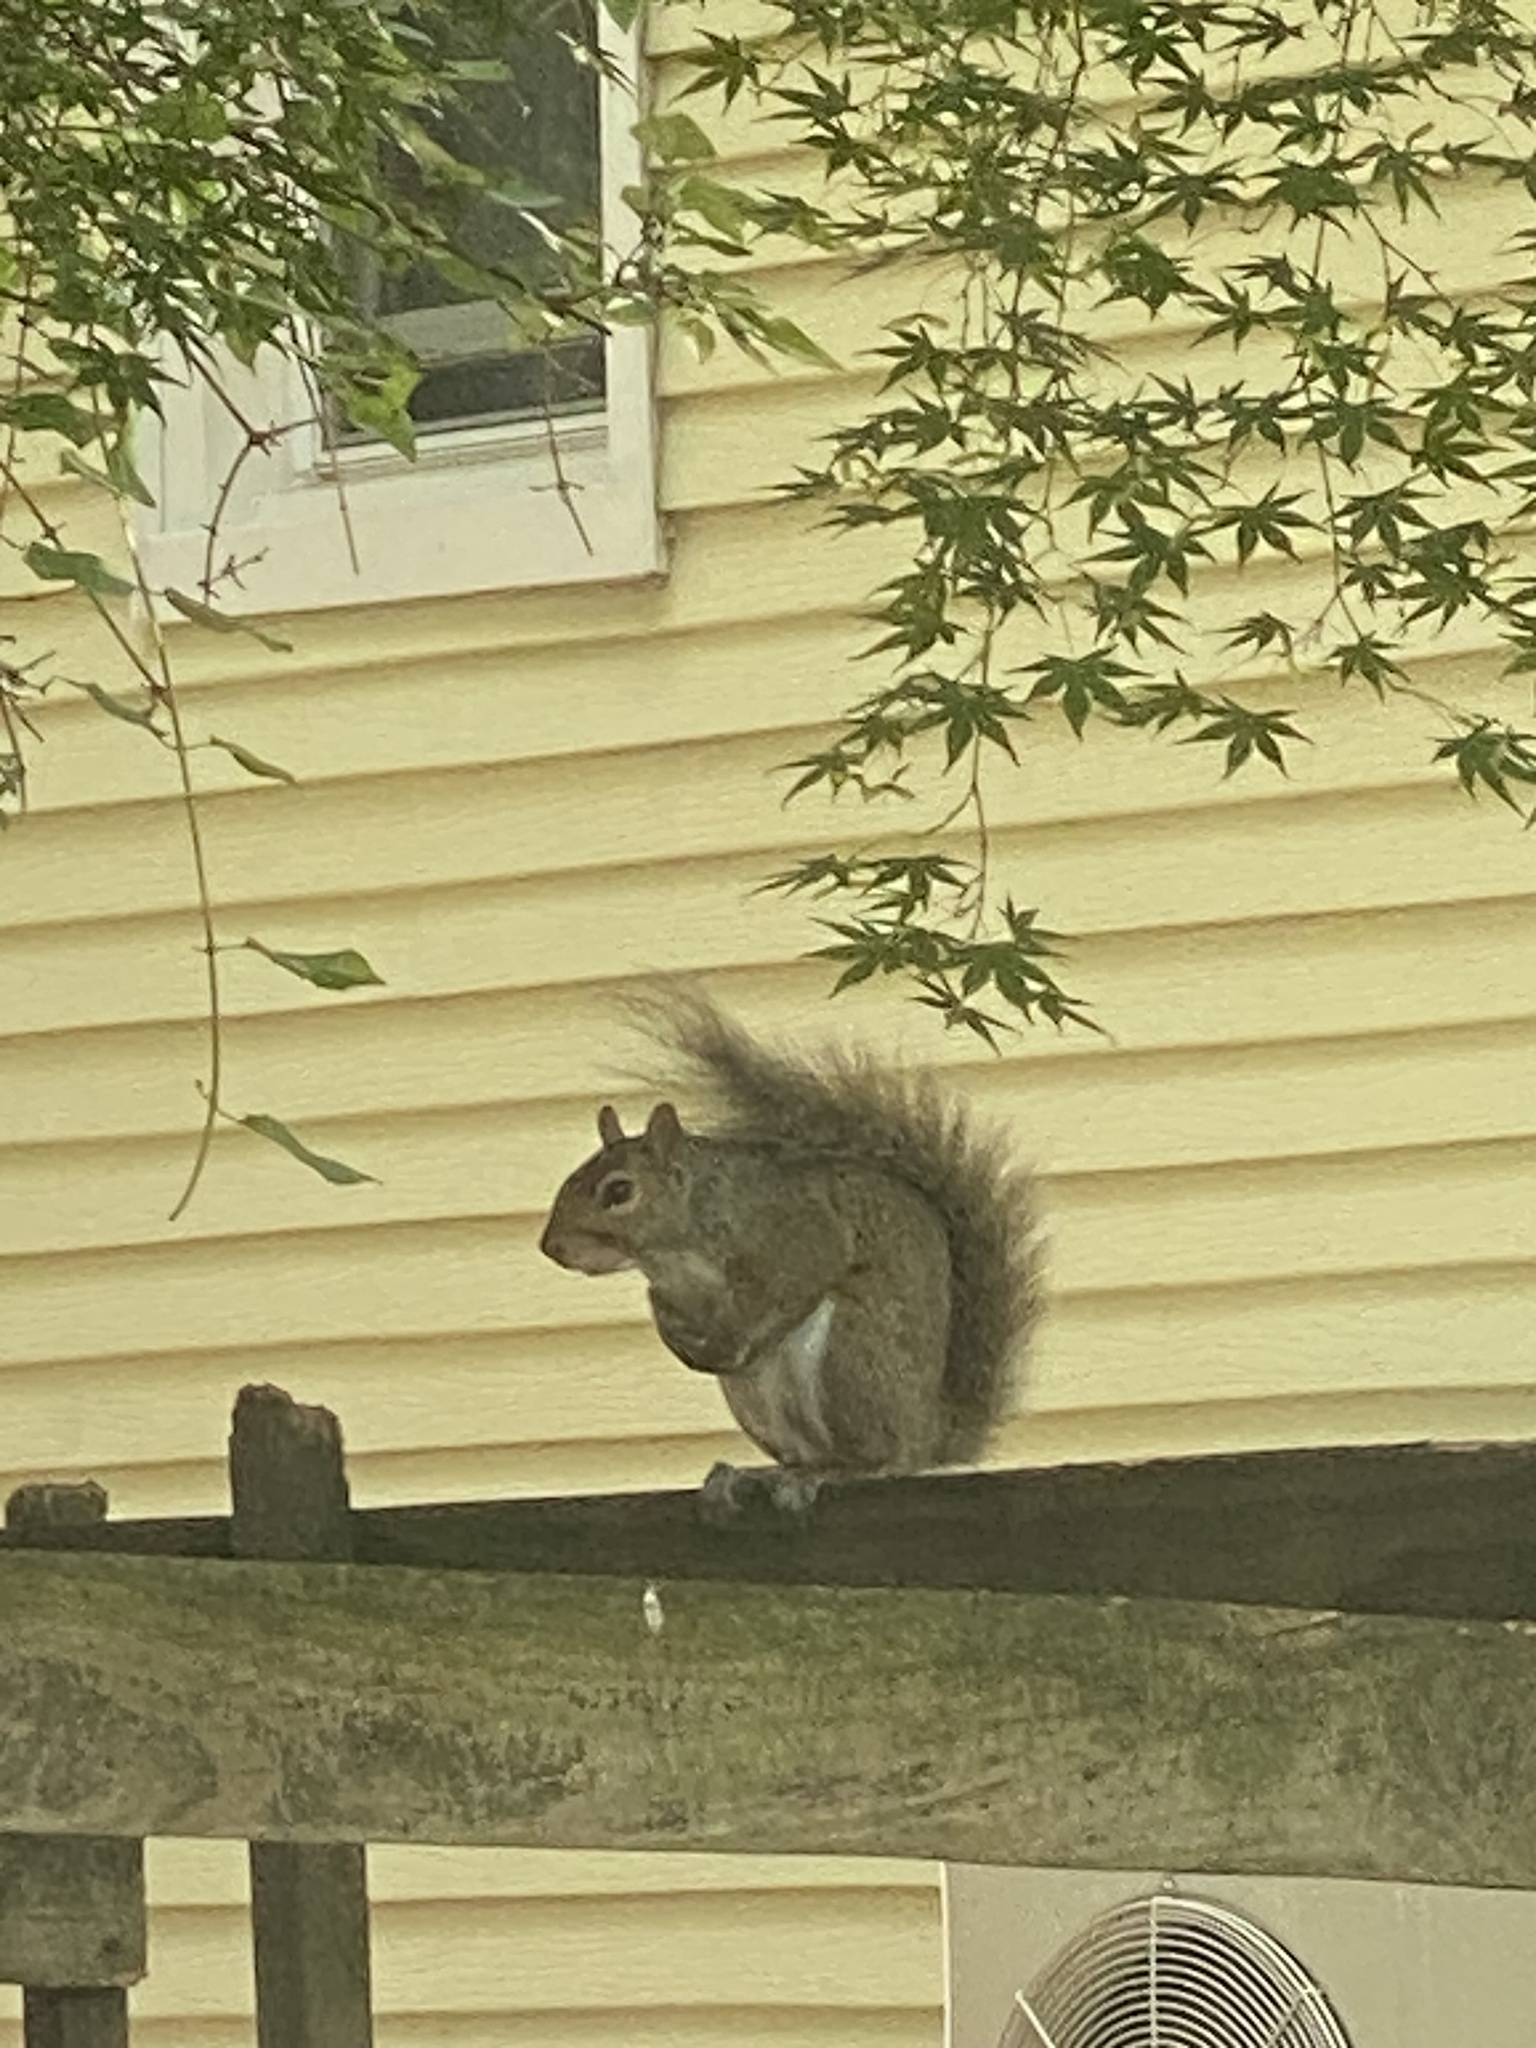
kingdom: Animalia
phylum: Chordata
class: Mammalia
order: Rodentia
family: Sciuridae
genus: Sciurus
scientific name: Sciurus carolinensis
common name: Eastern gray squirrel
